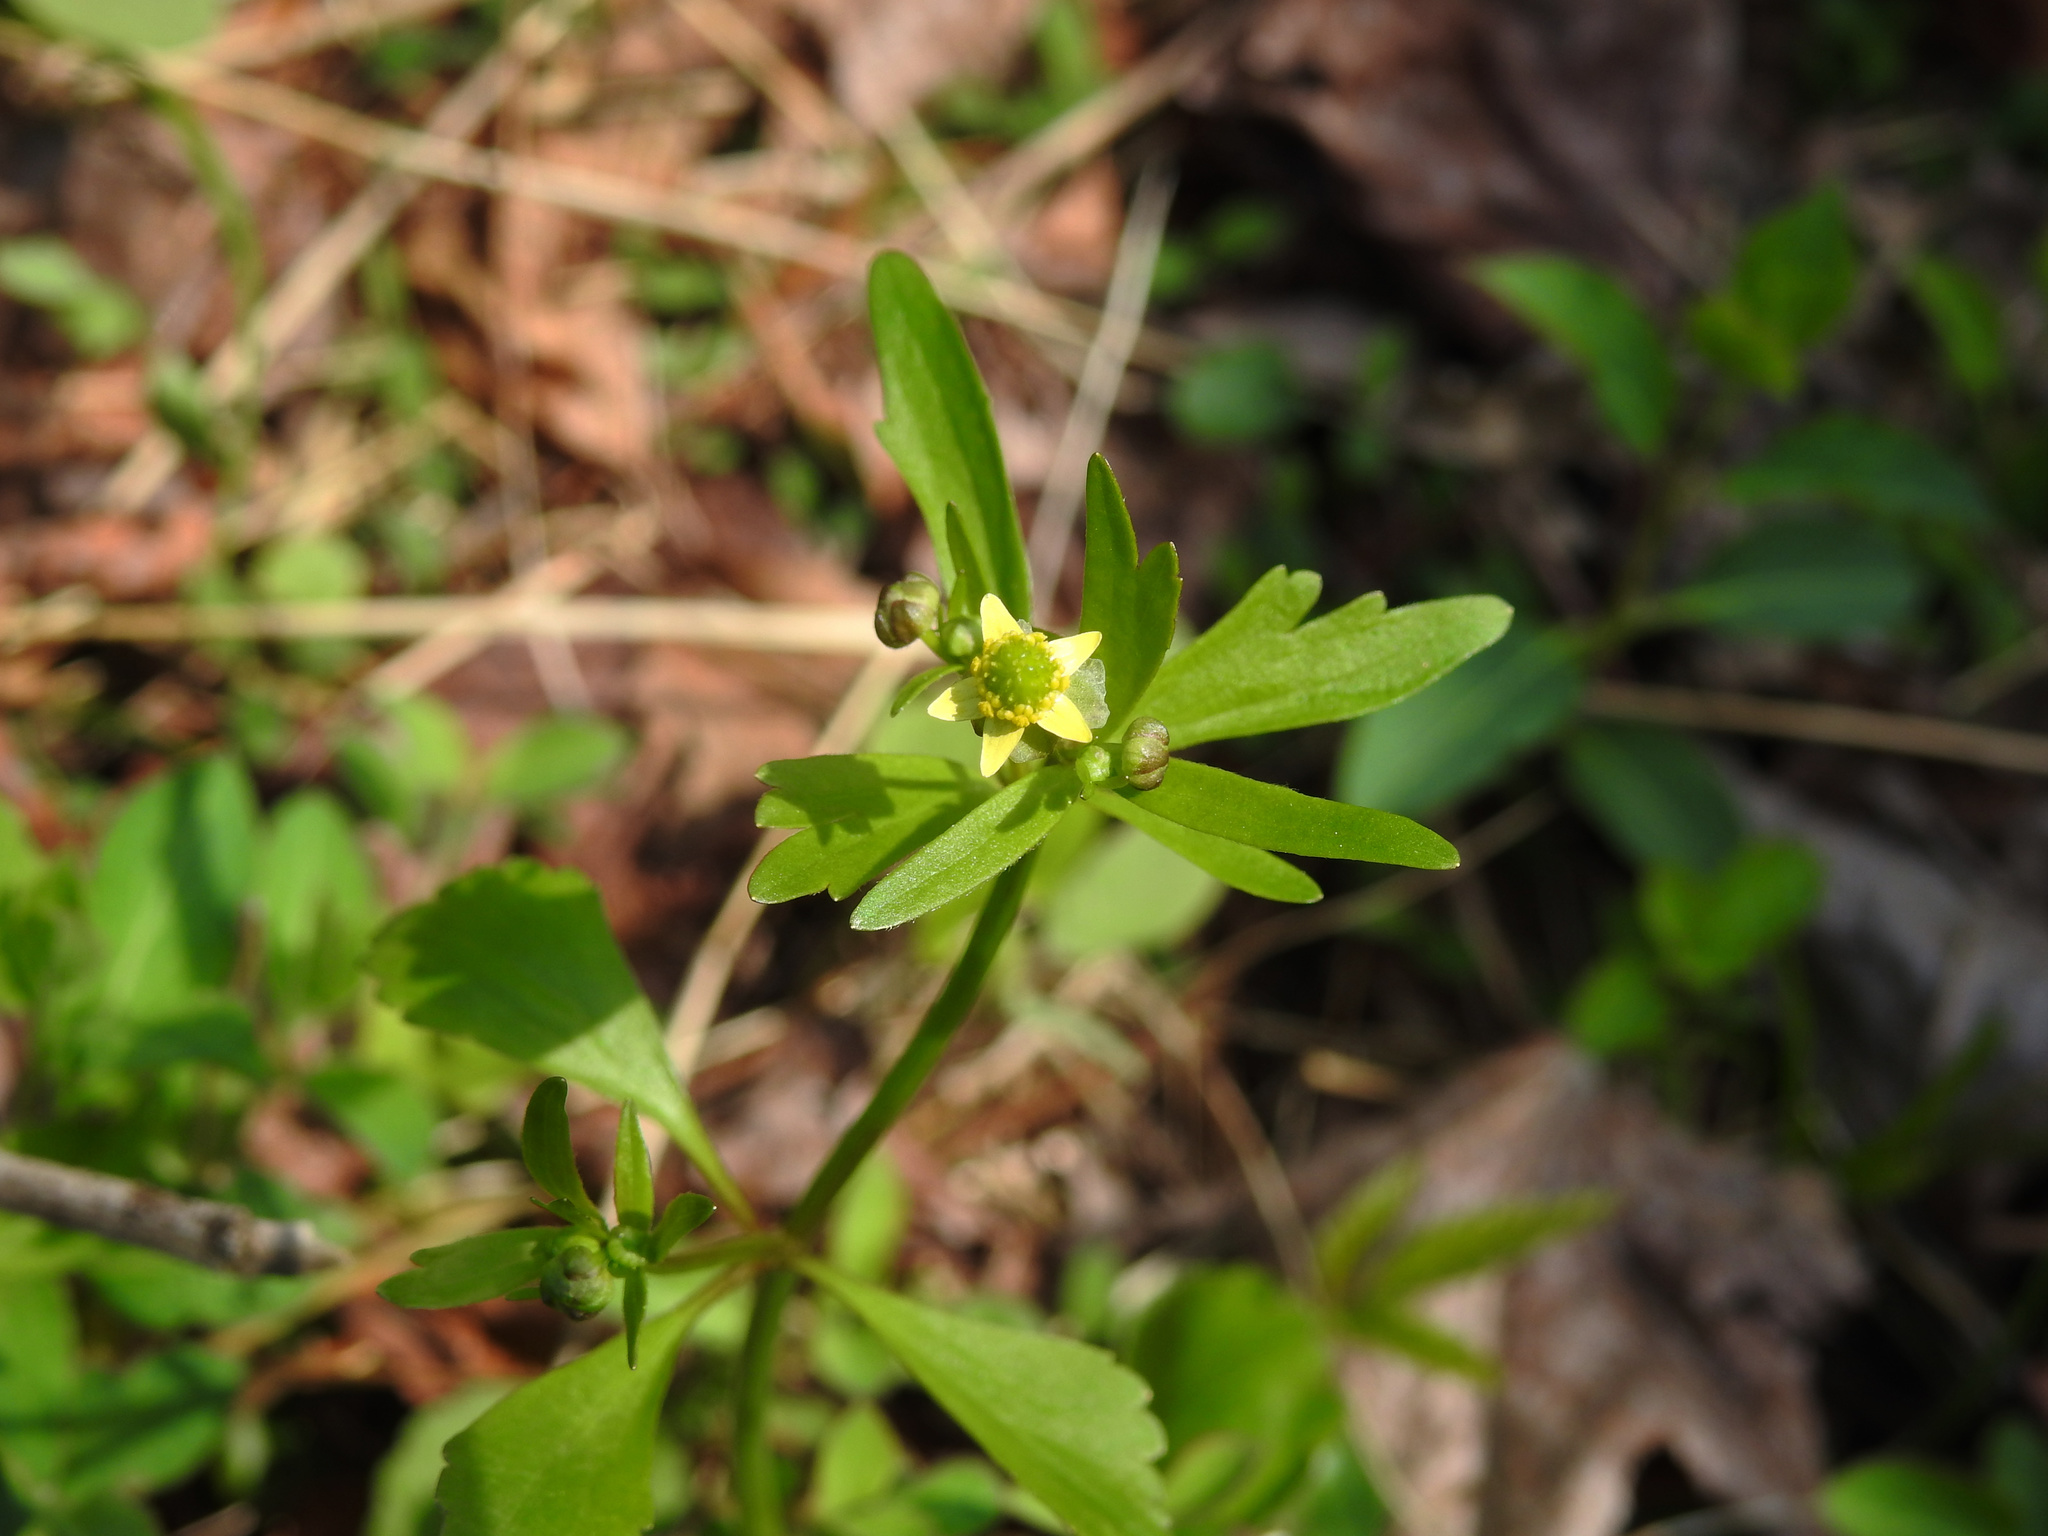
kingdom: Plantae
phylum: Tracheophyta
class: Magnoliopsida
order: Ranunculales
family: Ranunculaceae
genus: Ranunculus
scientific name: Ranunculus abortivus
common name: Early wood buttercup
